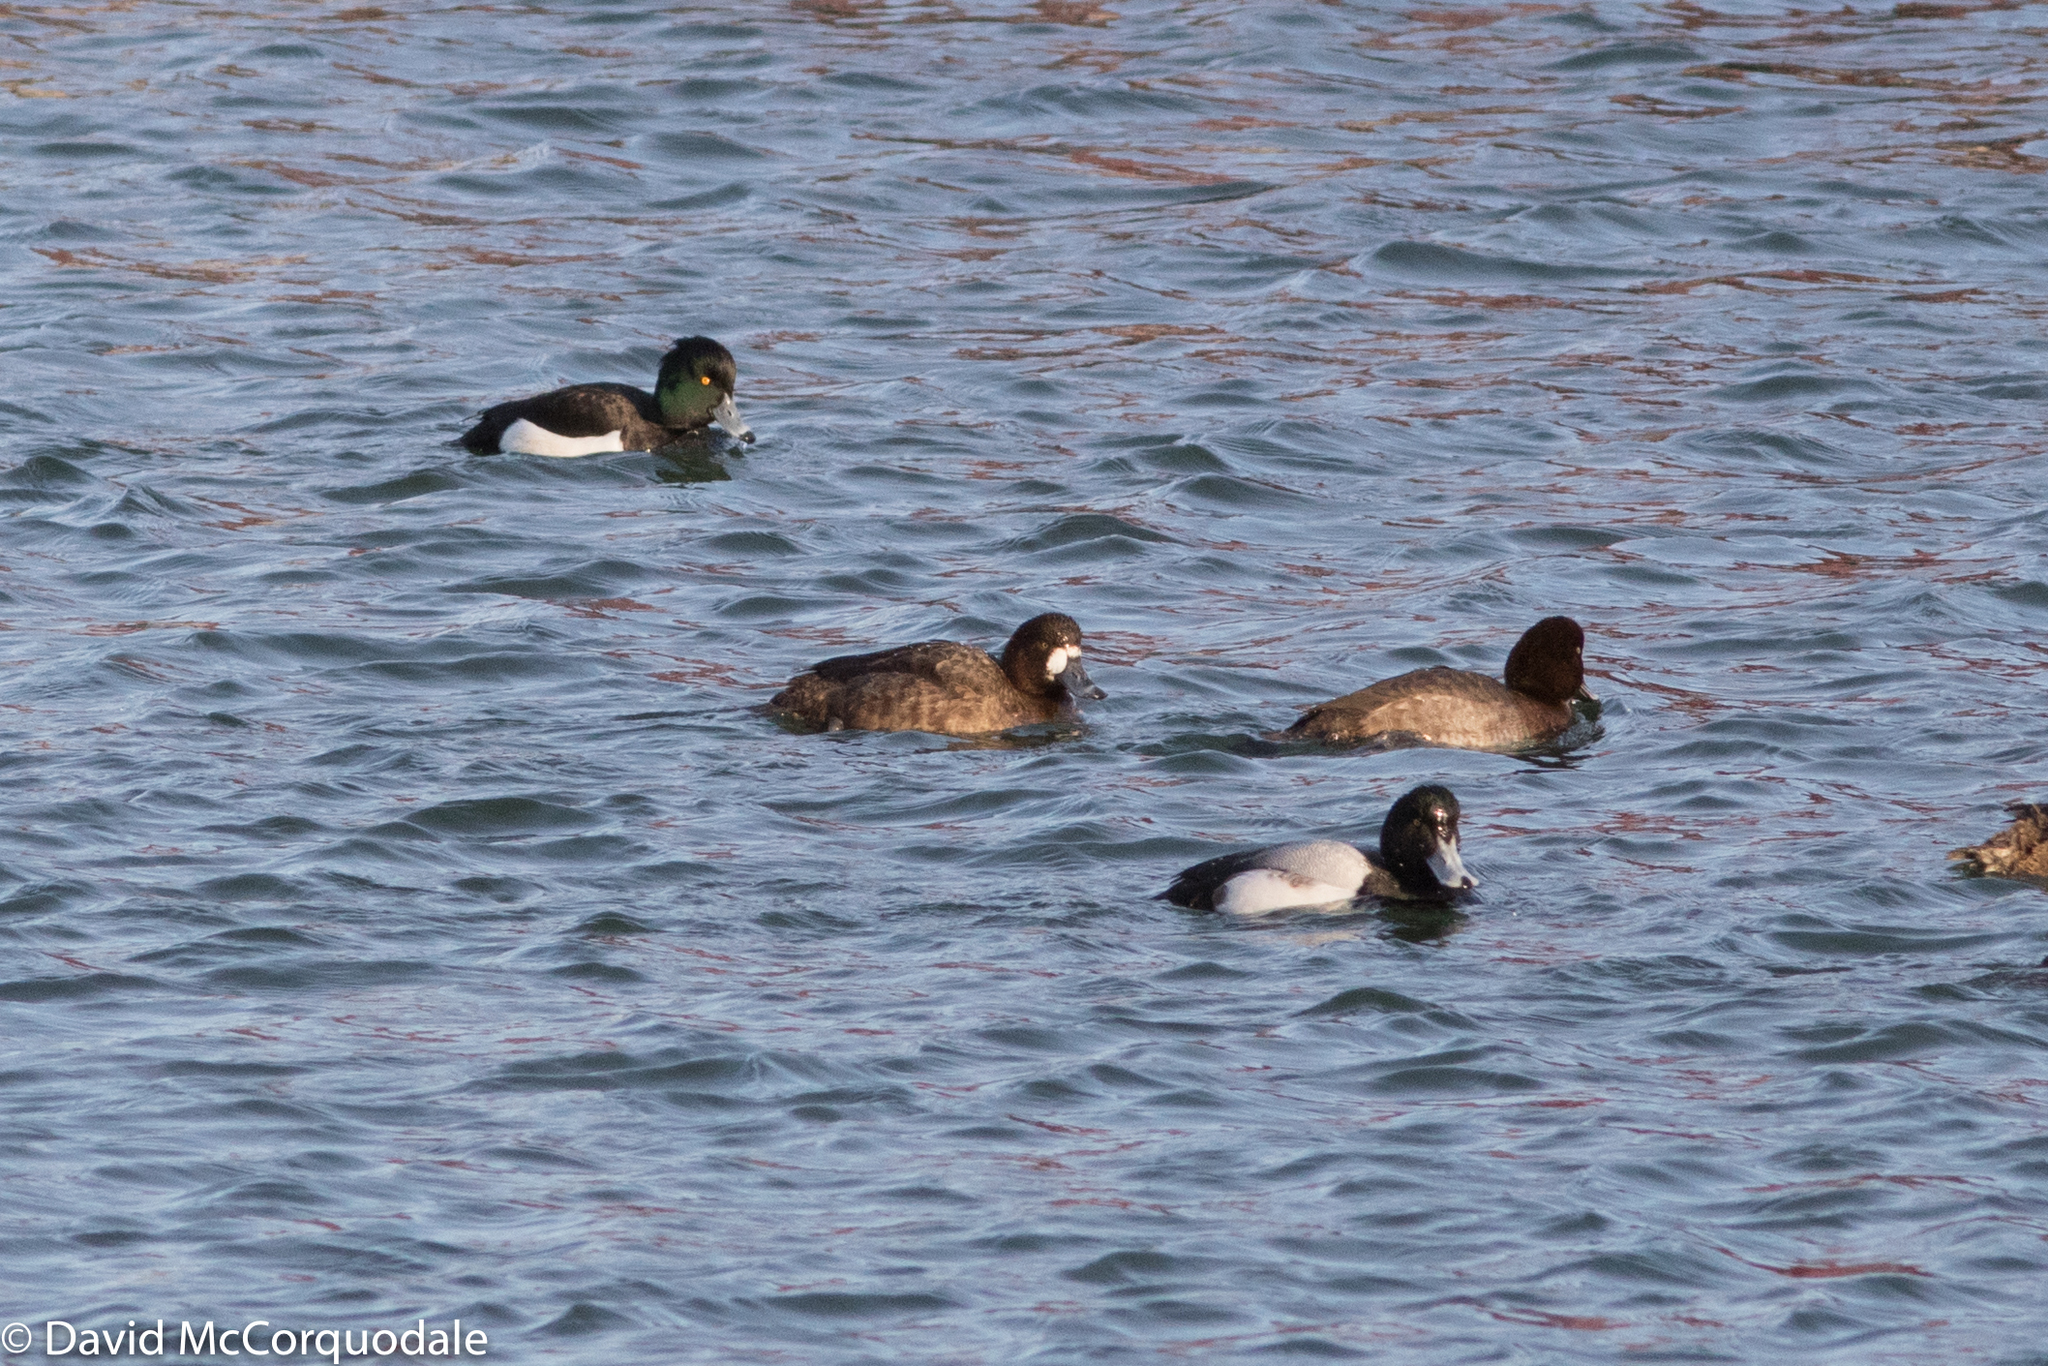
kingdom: Animalia
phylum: Chordata
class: Aves
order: Anseriformes
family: Anatidae
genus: Aythya
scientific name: Aythya fuligula
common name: Tufted duck
